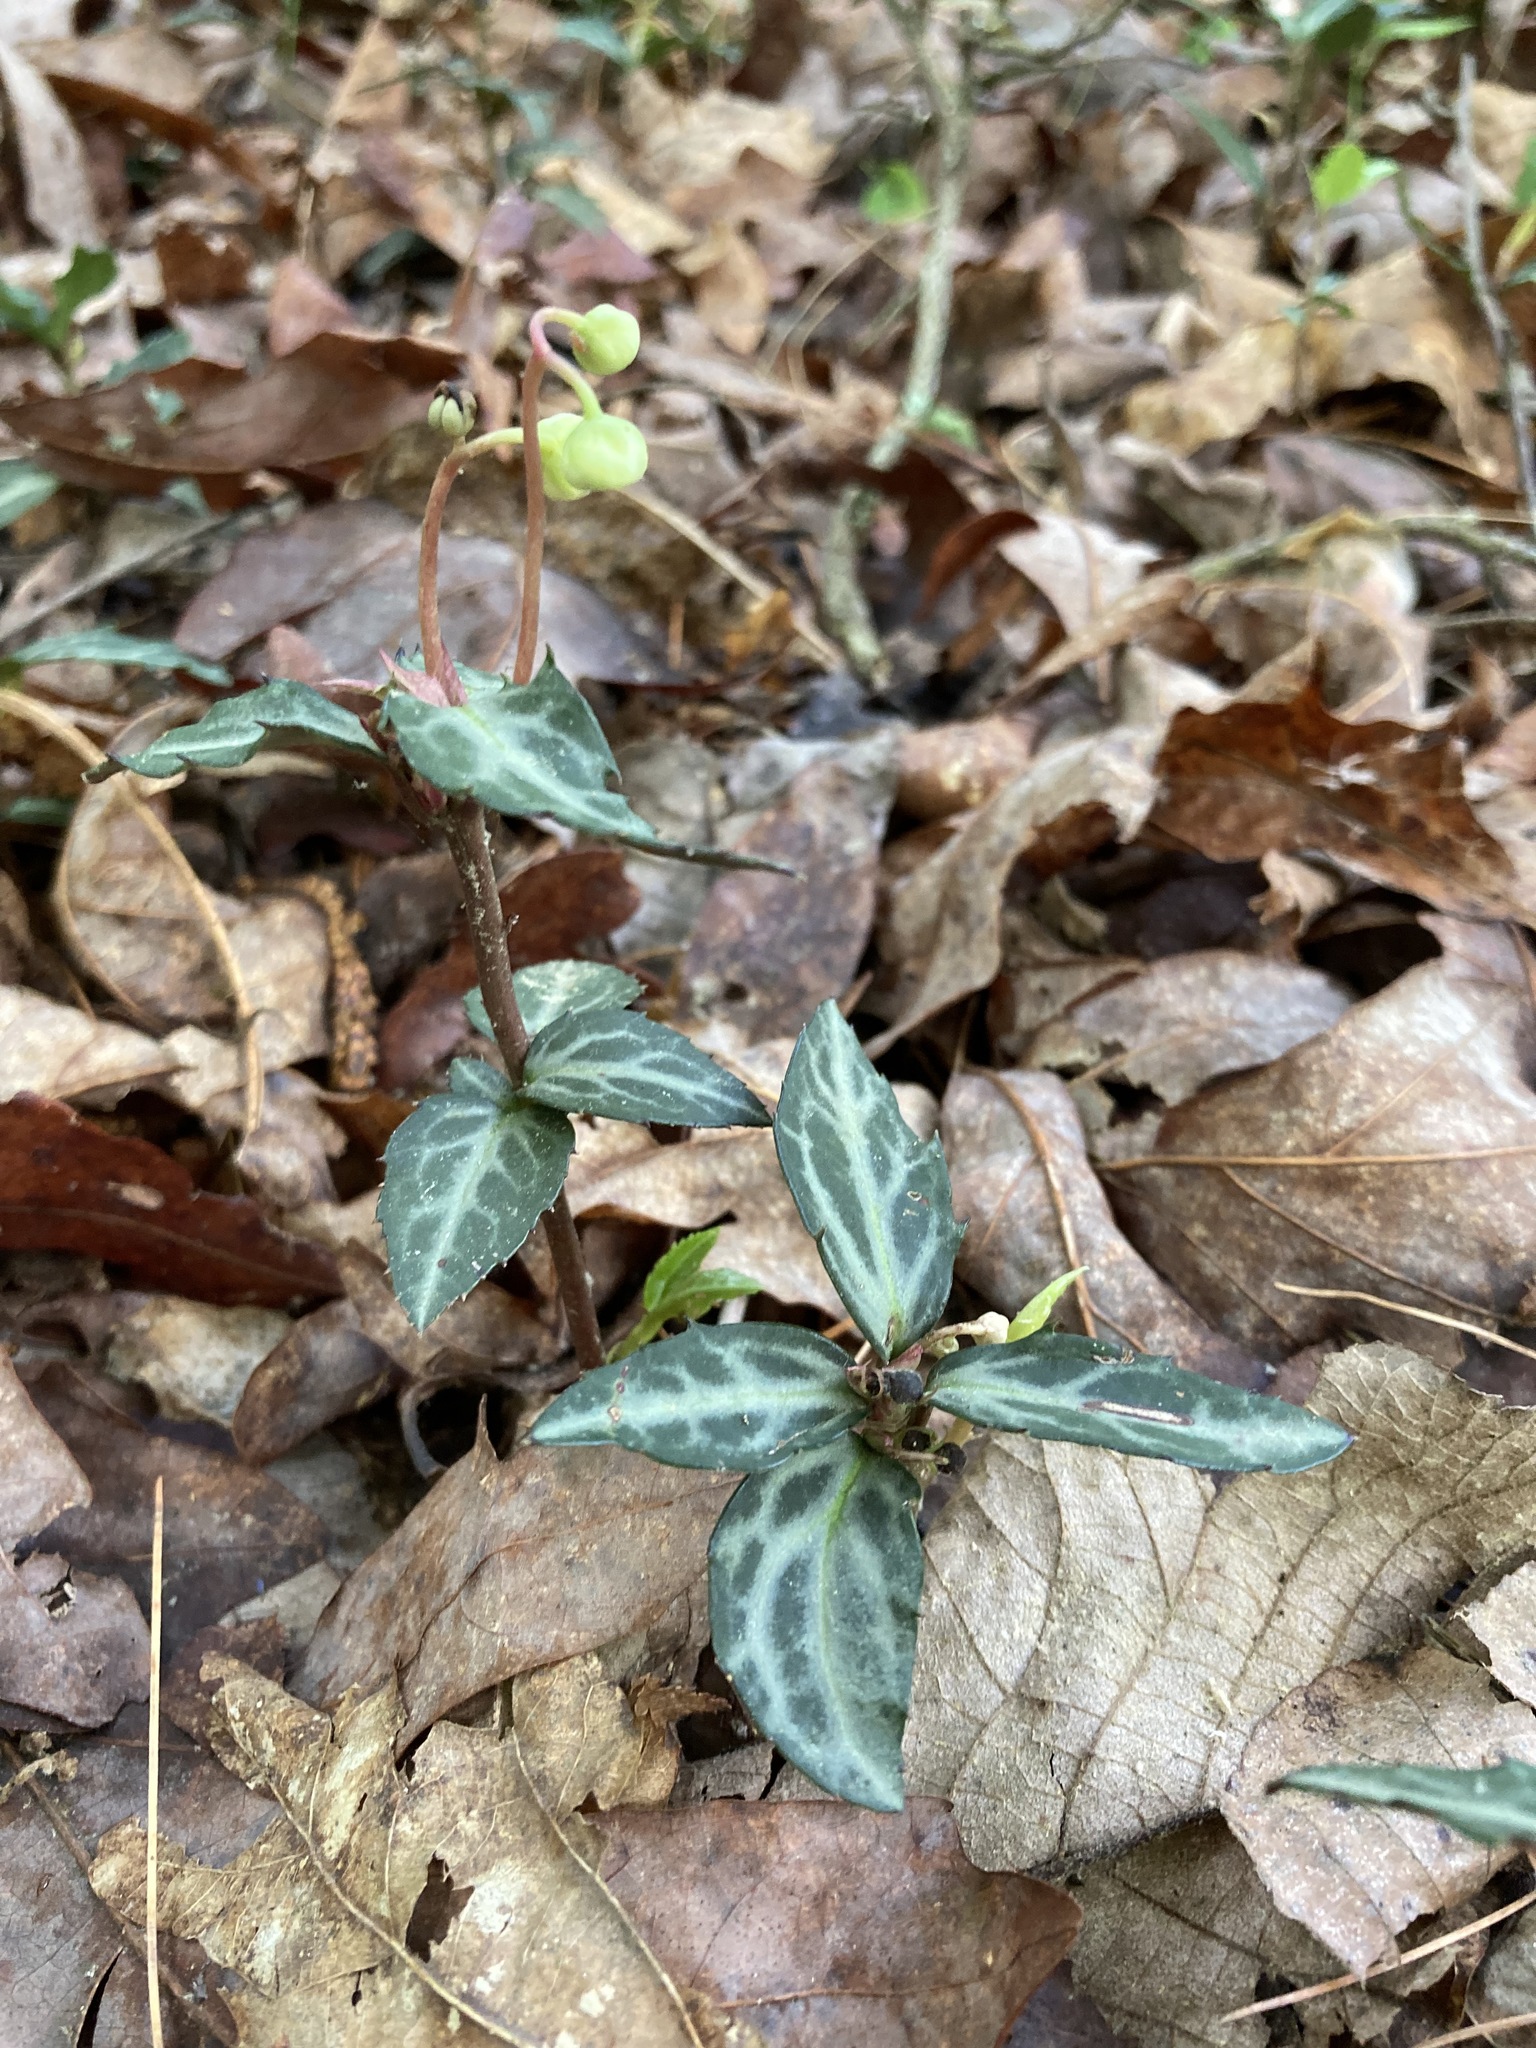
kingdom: Plantae
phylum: Tracheophyta
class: Magnoliopsida
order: Ericales
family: Ericaceae
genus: Chimaphila
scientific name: Chimaphila maculata
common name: Spotted pipsissewa
